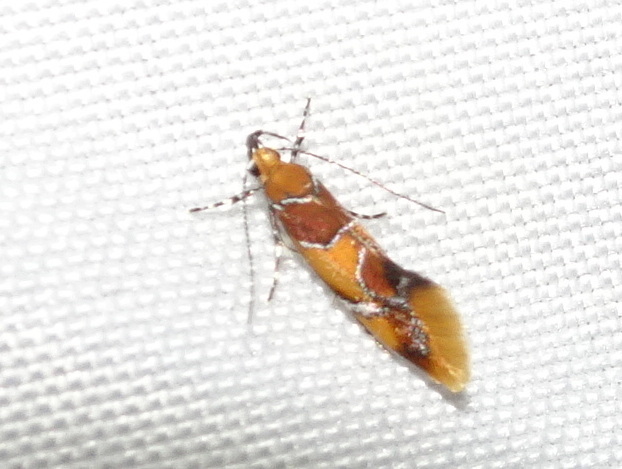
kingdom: Animalia
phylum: Arthropoda
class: Insecta
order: Lepidoptera
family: Oecophoridae
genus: Callima
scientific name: Callima argenticinctella
